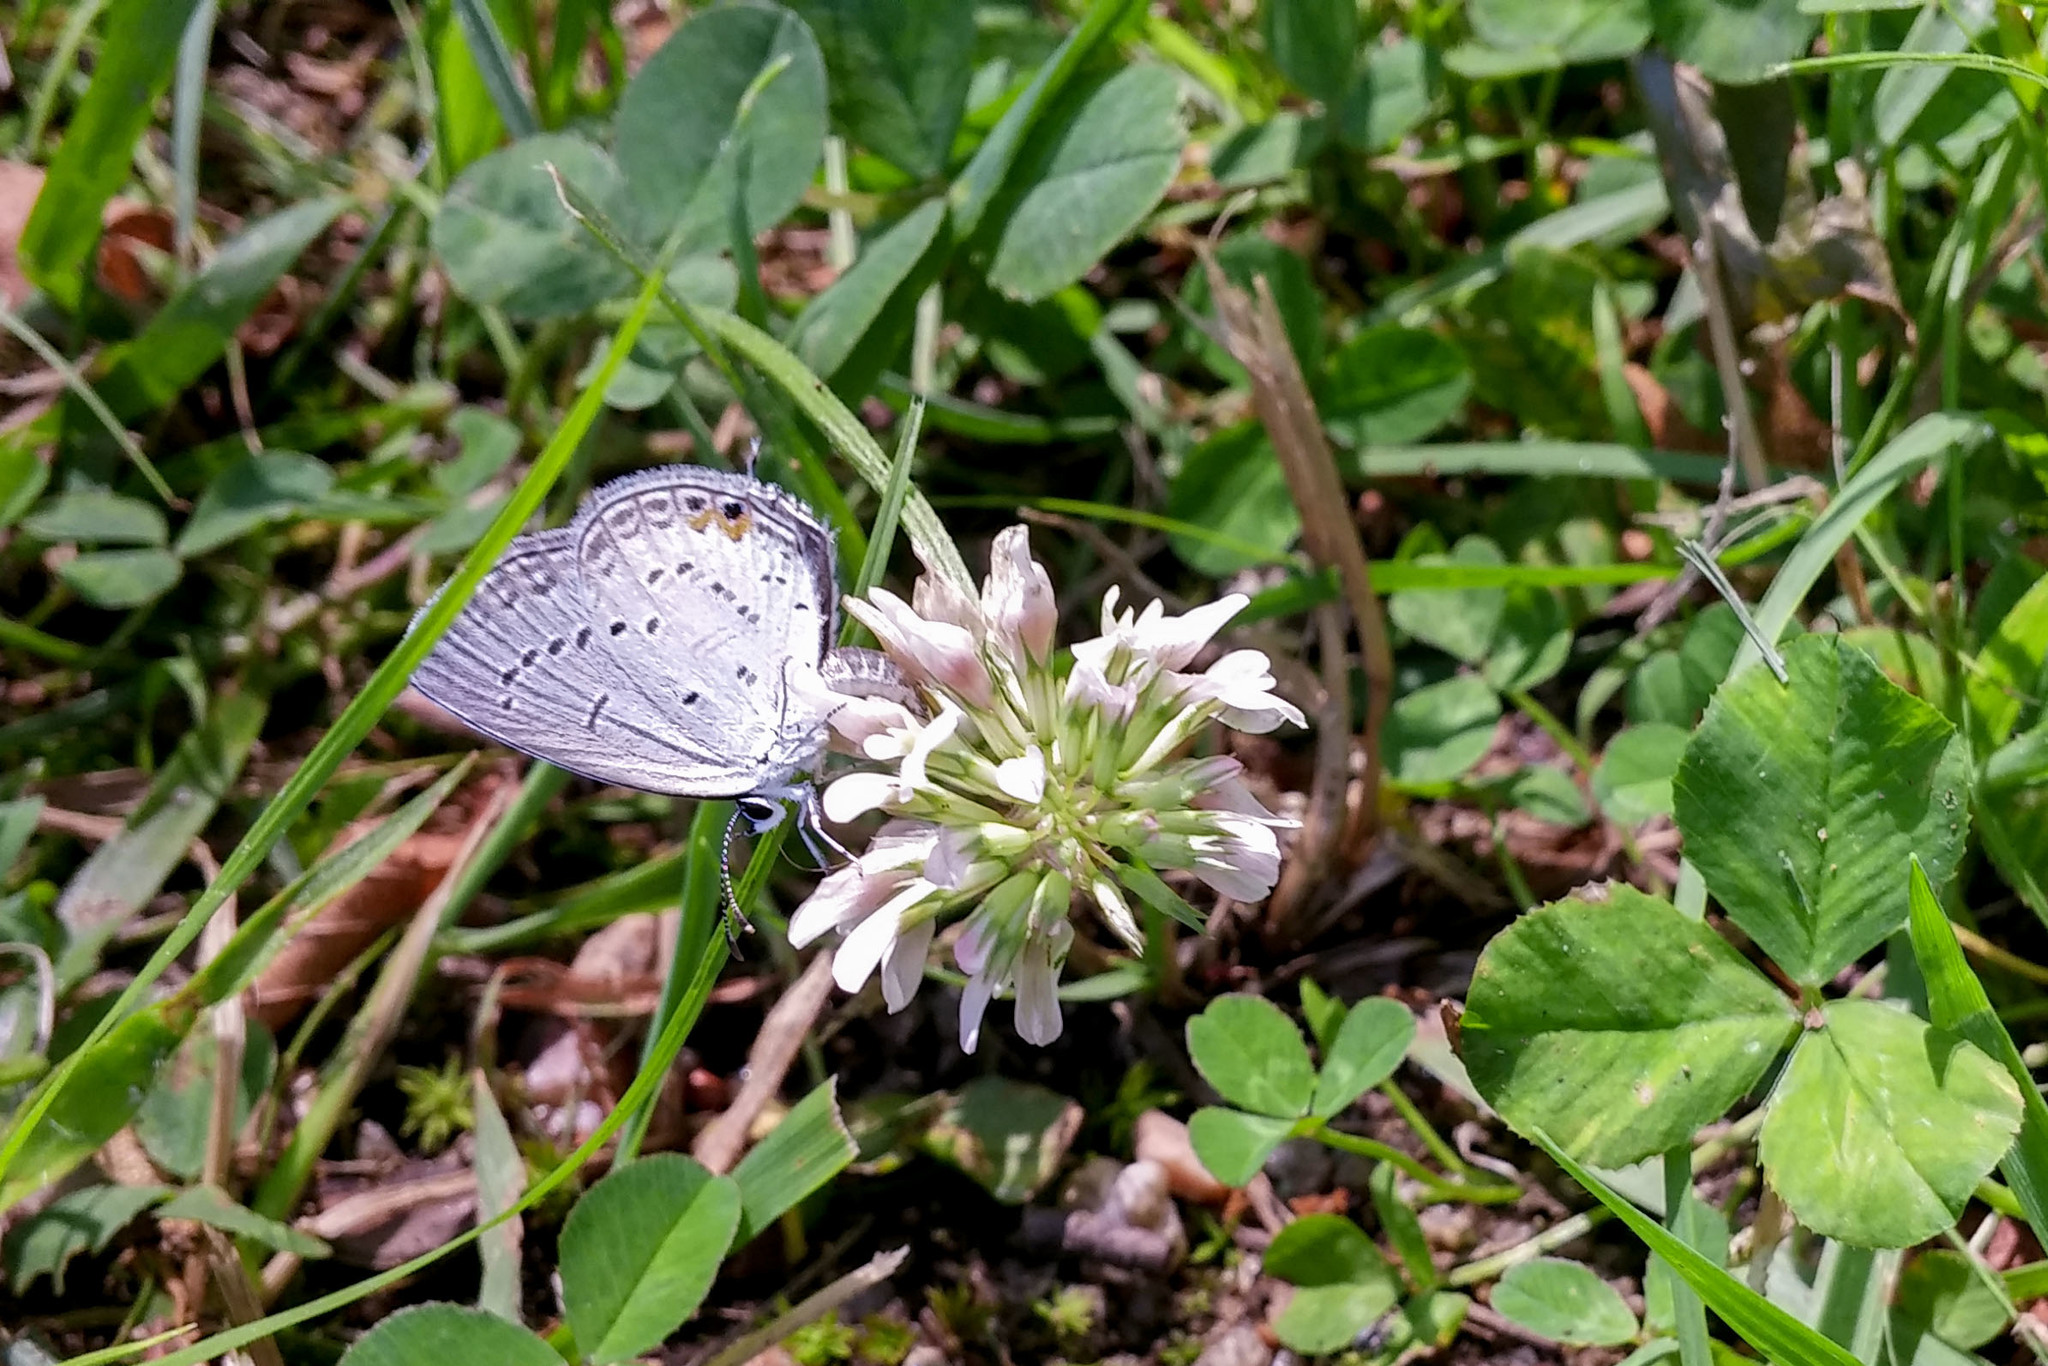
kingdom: Animalia
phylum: Arthropoda
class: Insecta
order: Lepidoptera
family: Lycaenidae
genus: Elkalyce
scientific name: Elkalyce comyntas
